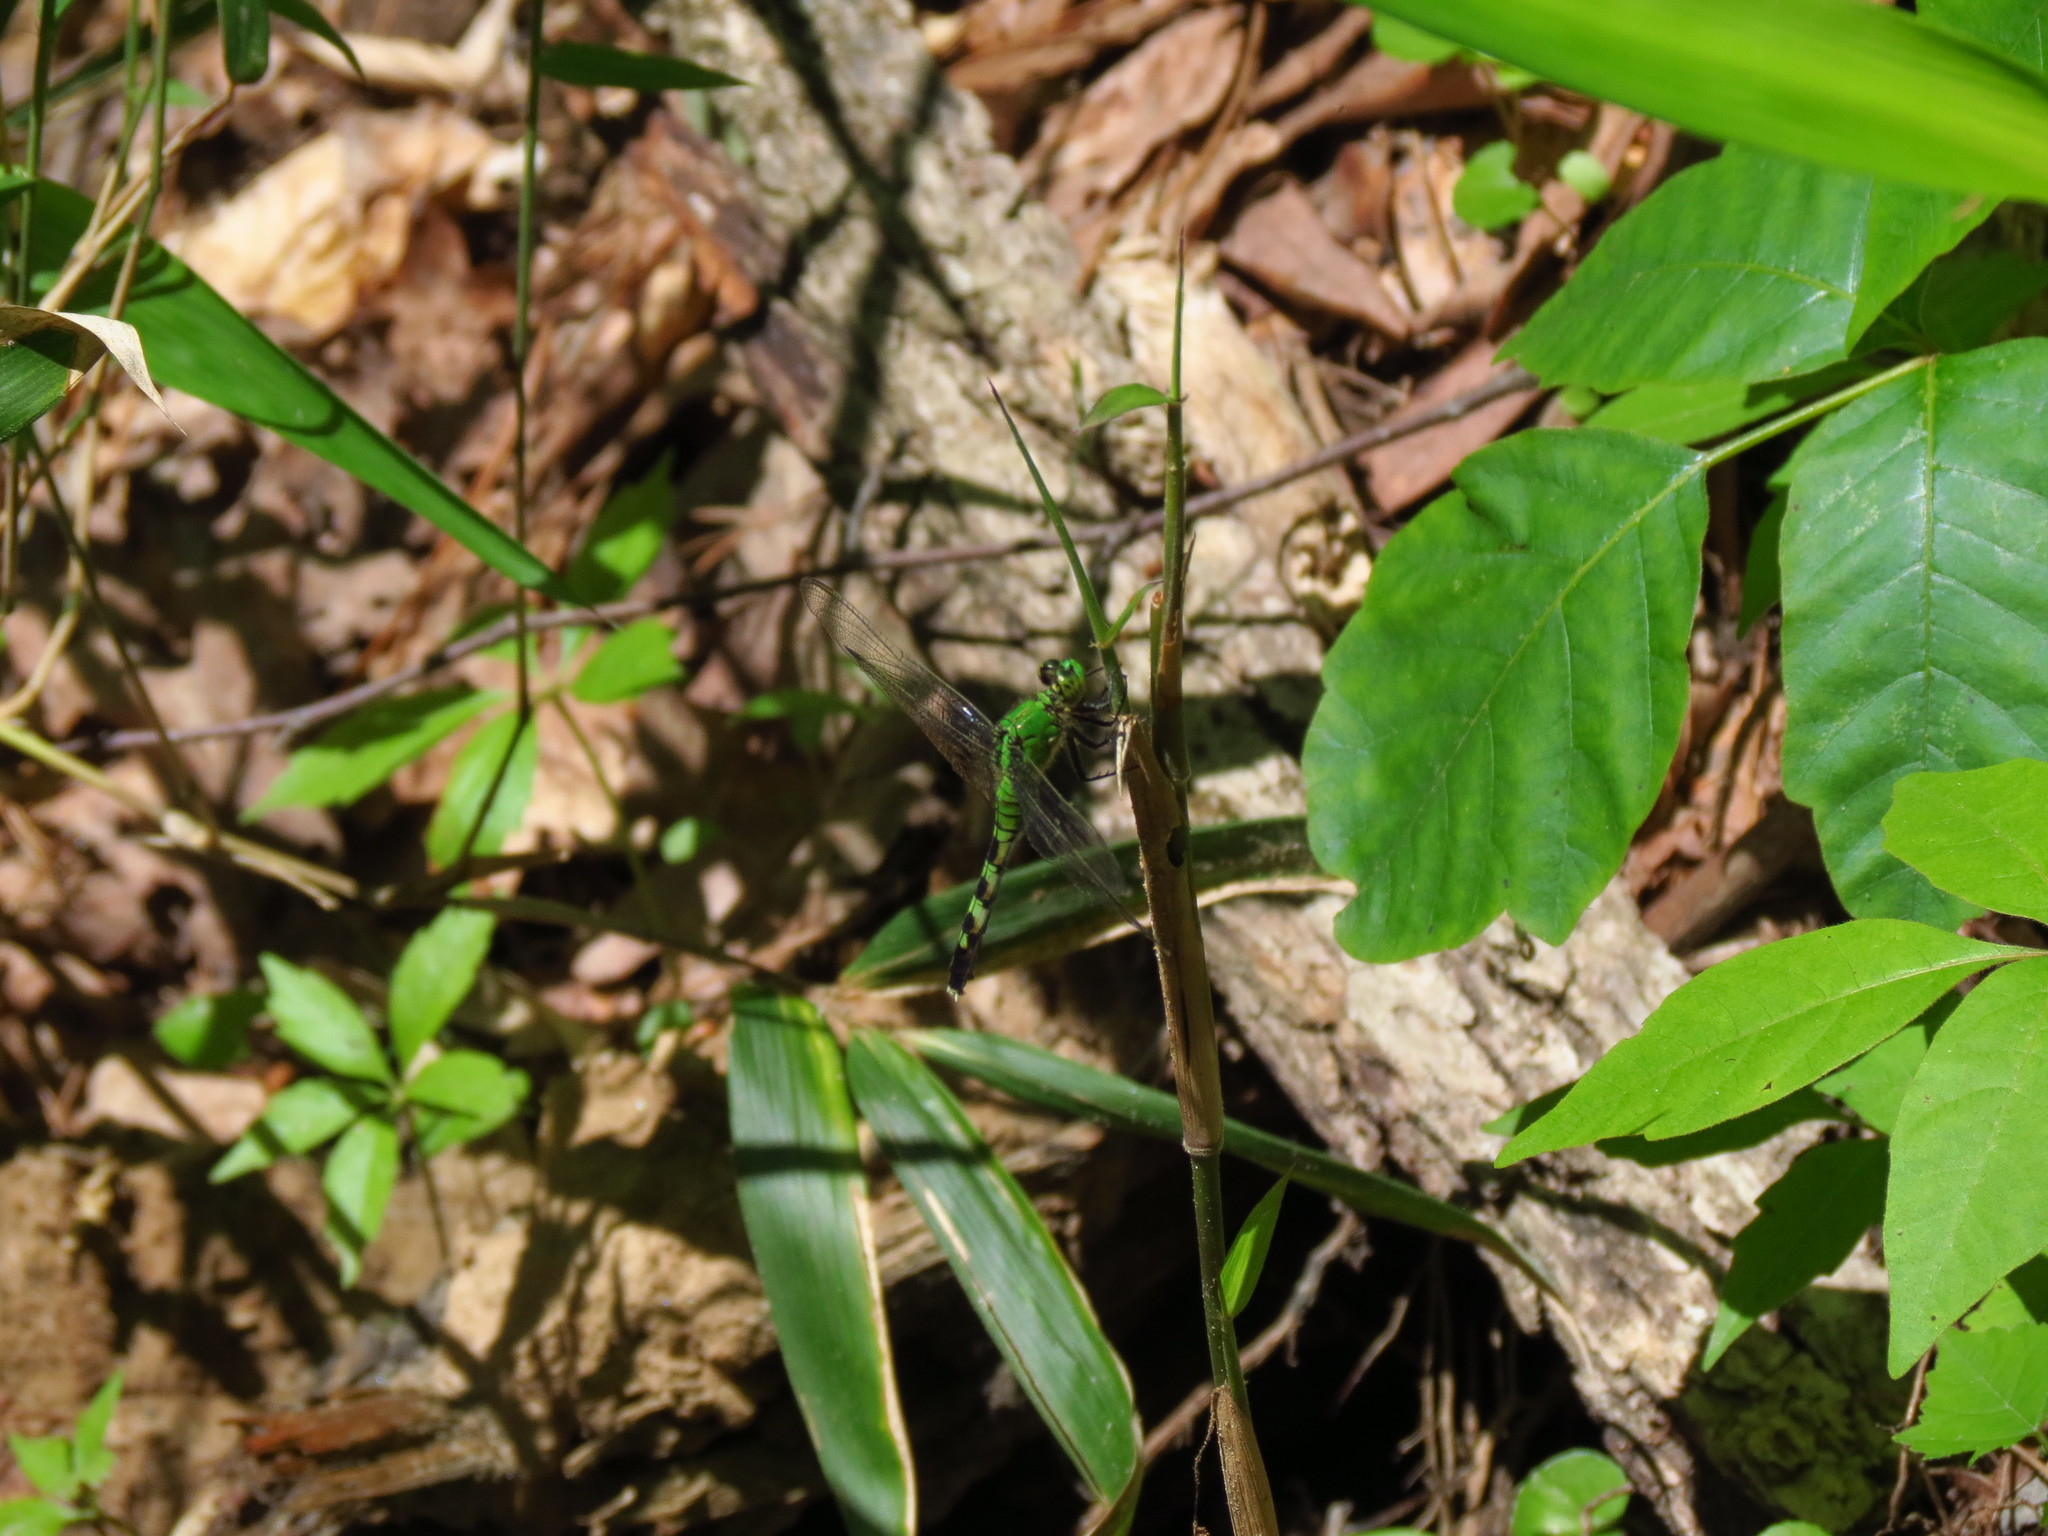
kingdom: Animalia
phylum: Arthropoda
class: Insecta
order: Odonata
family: Libellulidae
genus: Erythemis
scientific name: Erythemis simplicicollis
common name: Eastern pondhawk
